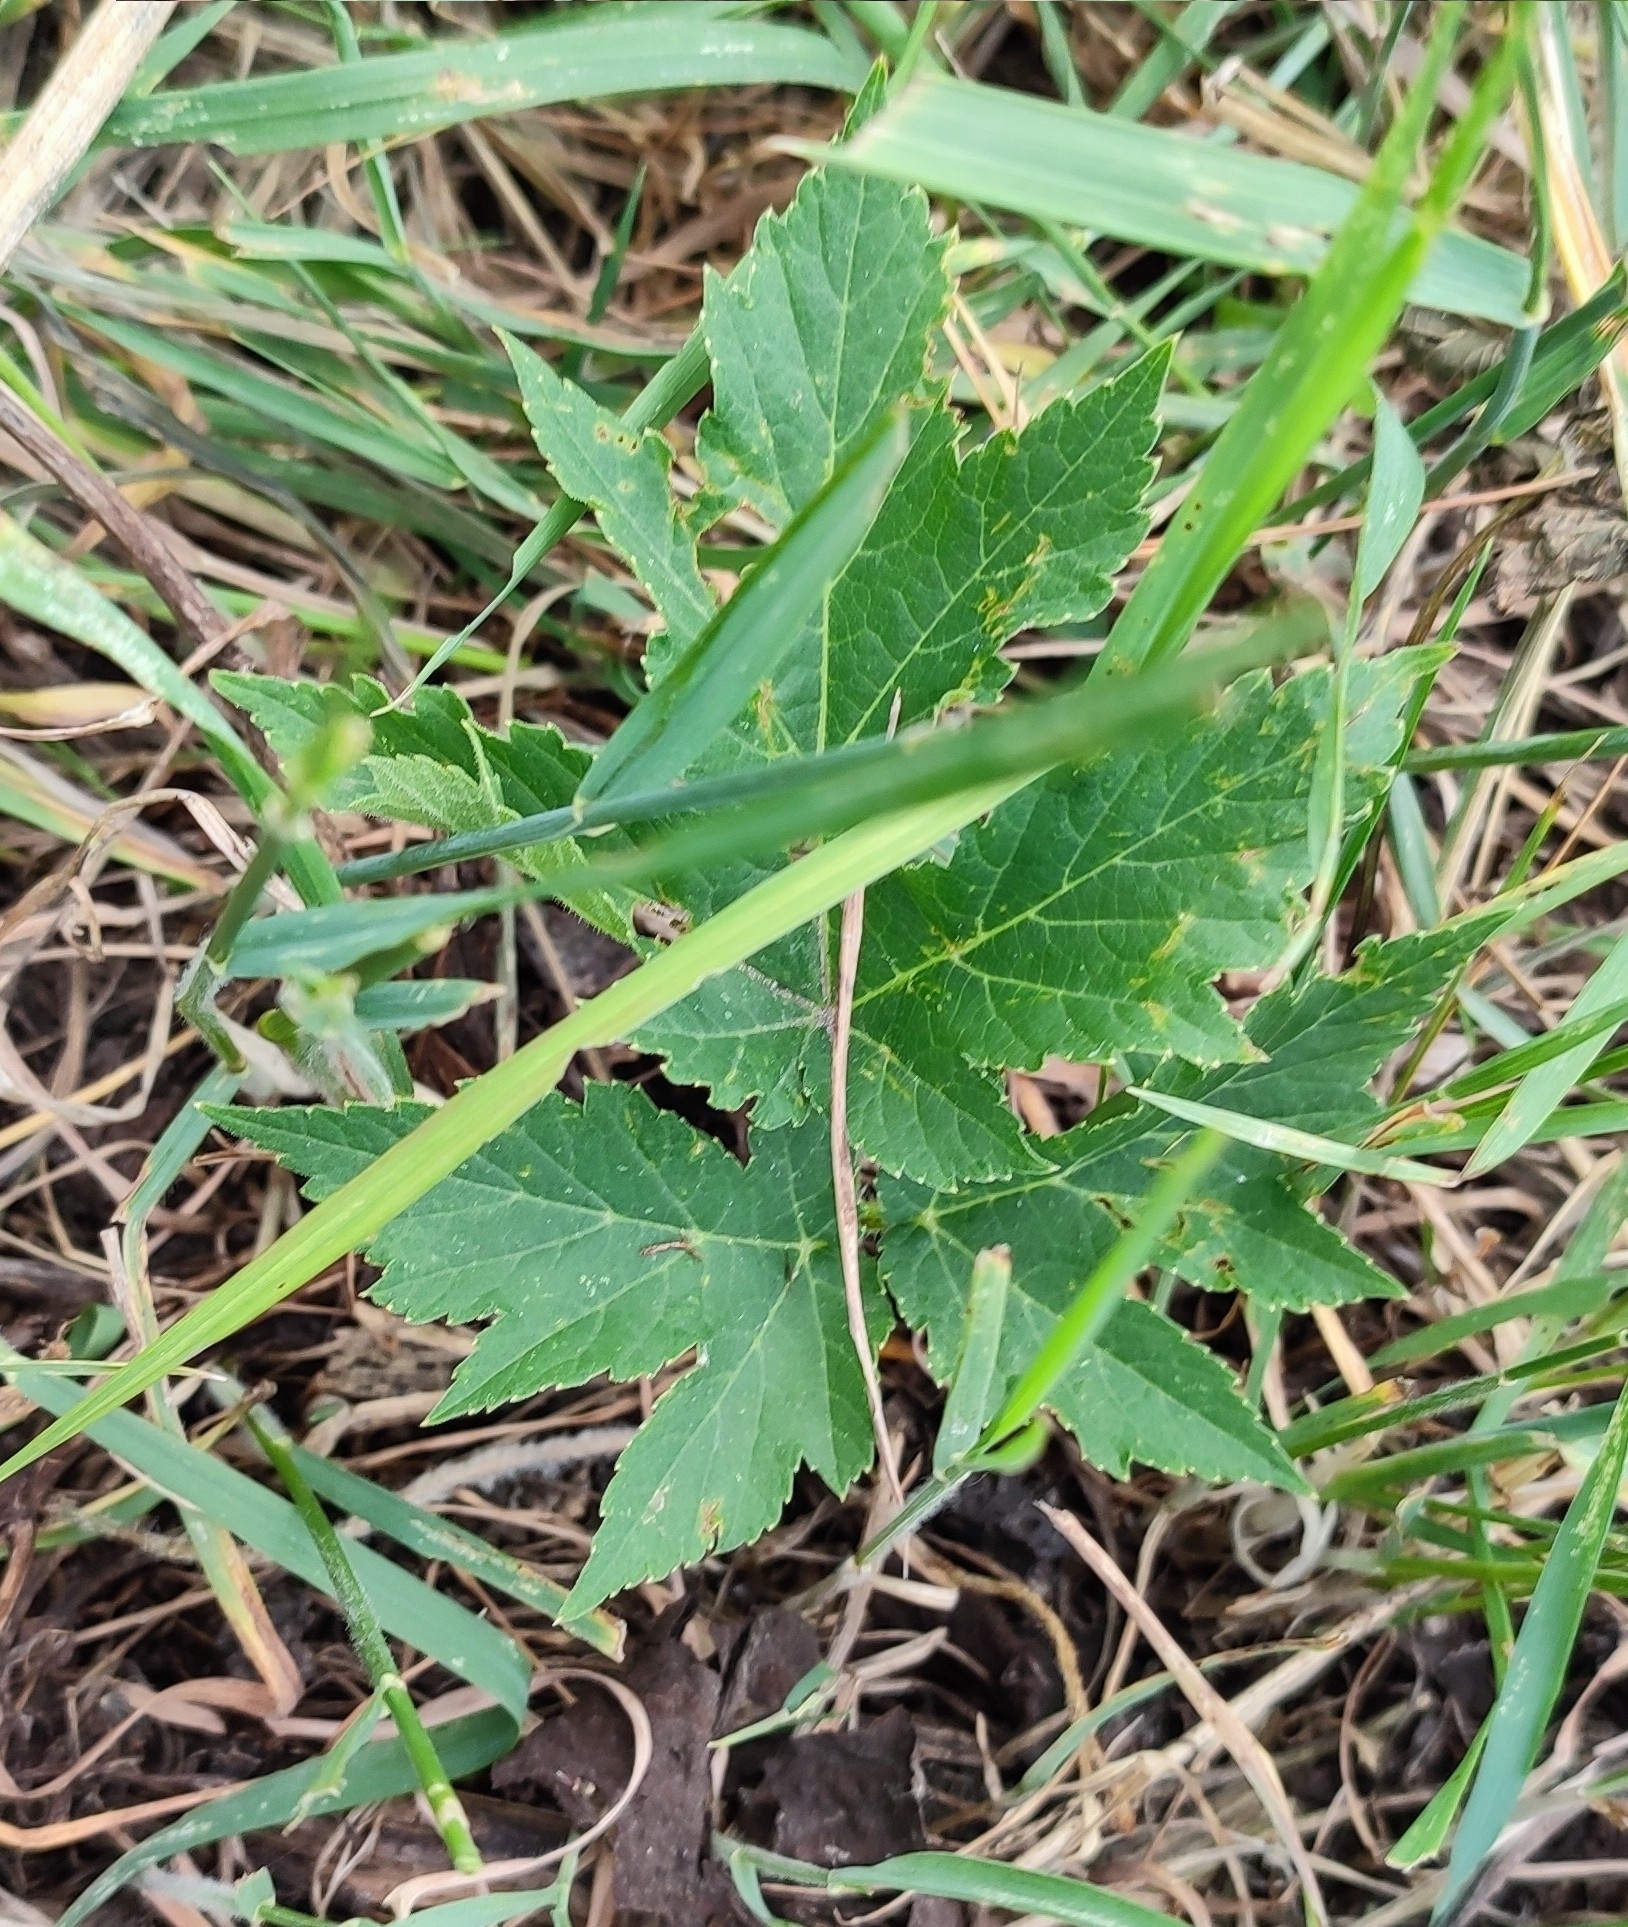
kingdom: Plantae
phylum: Tracheophyta
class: Magnoliopsida
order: Apiales
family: Apiaceae
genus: Heracleum
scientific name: Heracleum sphondylium
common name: Hogweed
